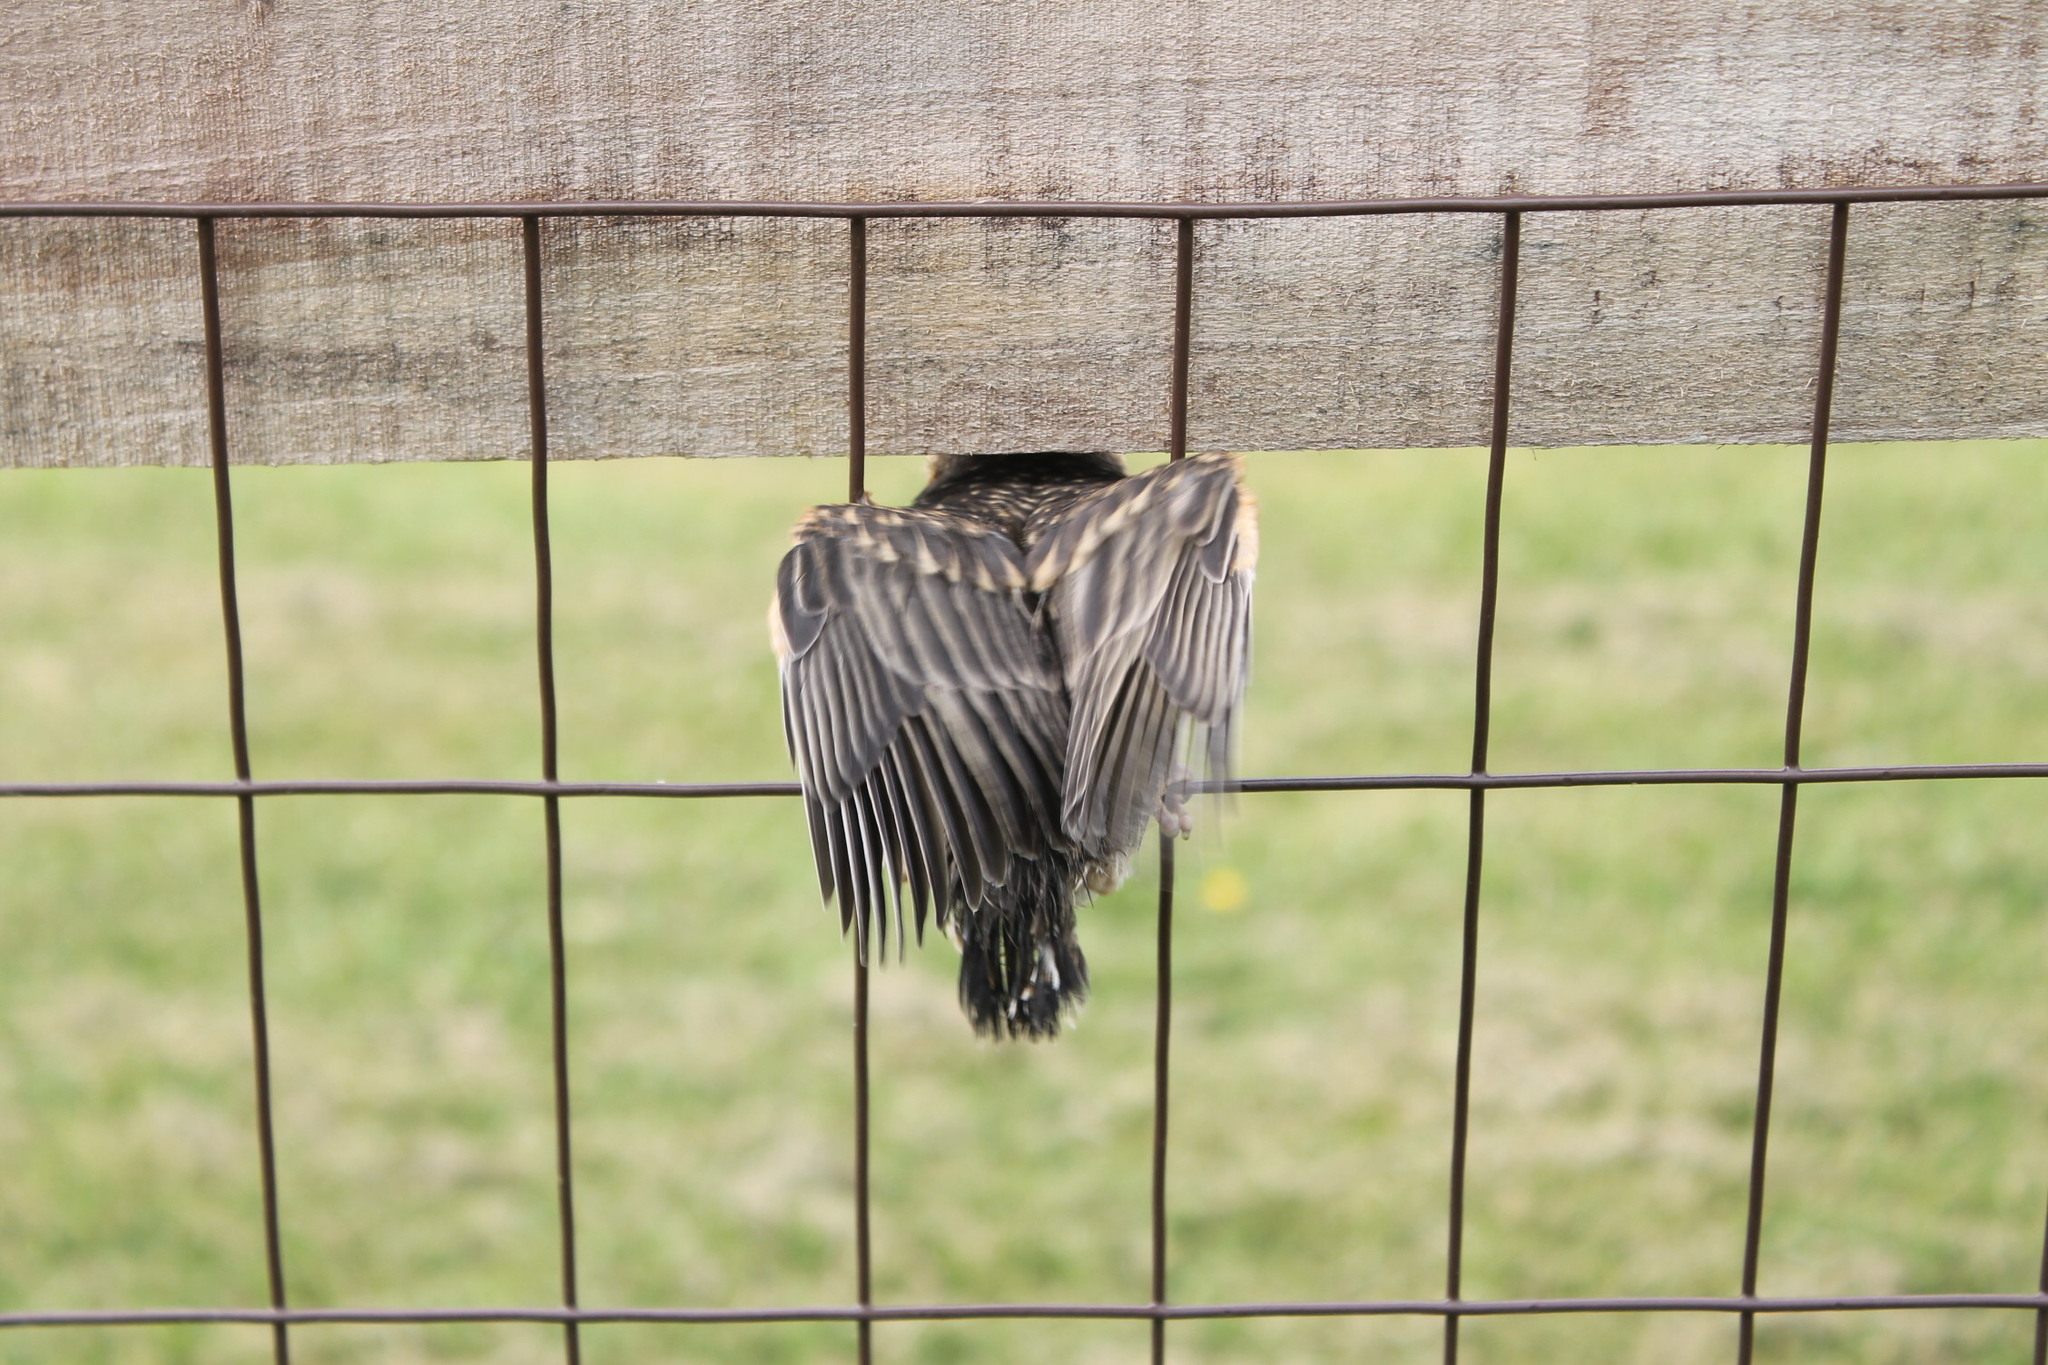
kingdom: Animalia
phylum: Chordata
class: Aves
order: Passeriformes
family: Turdidae
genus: Turdus
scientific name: Turdus migratorius
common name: American robin
